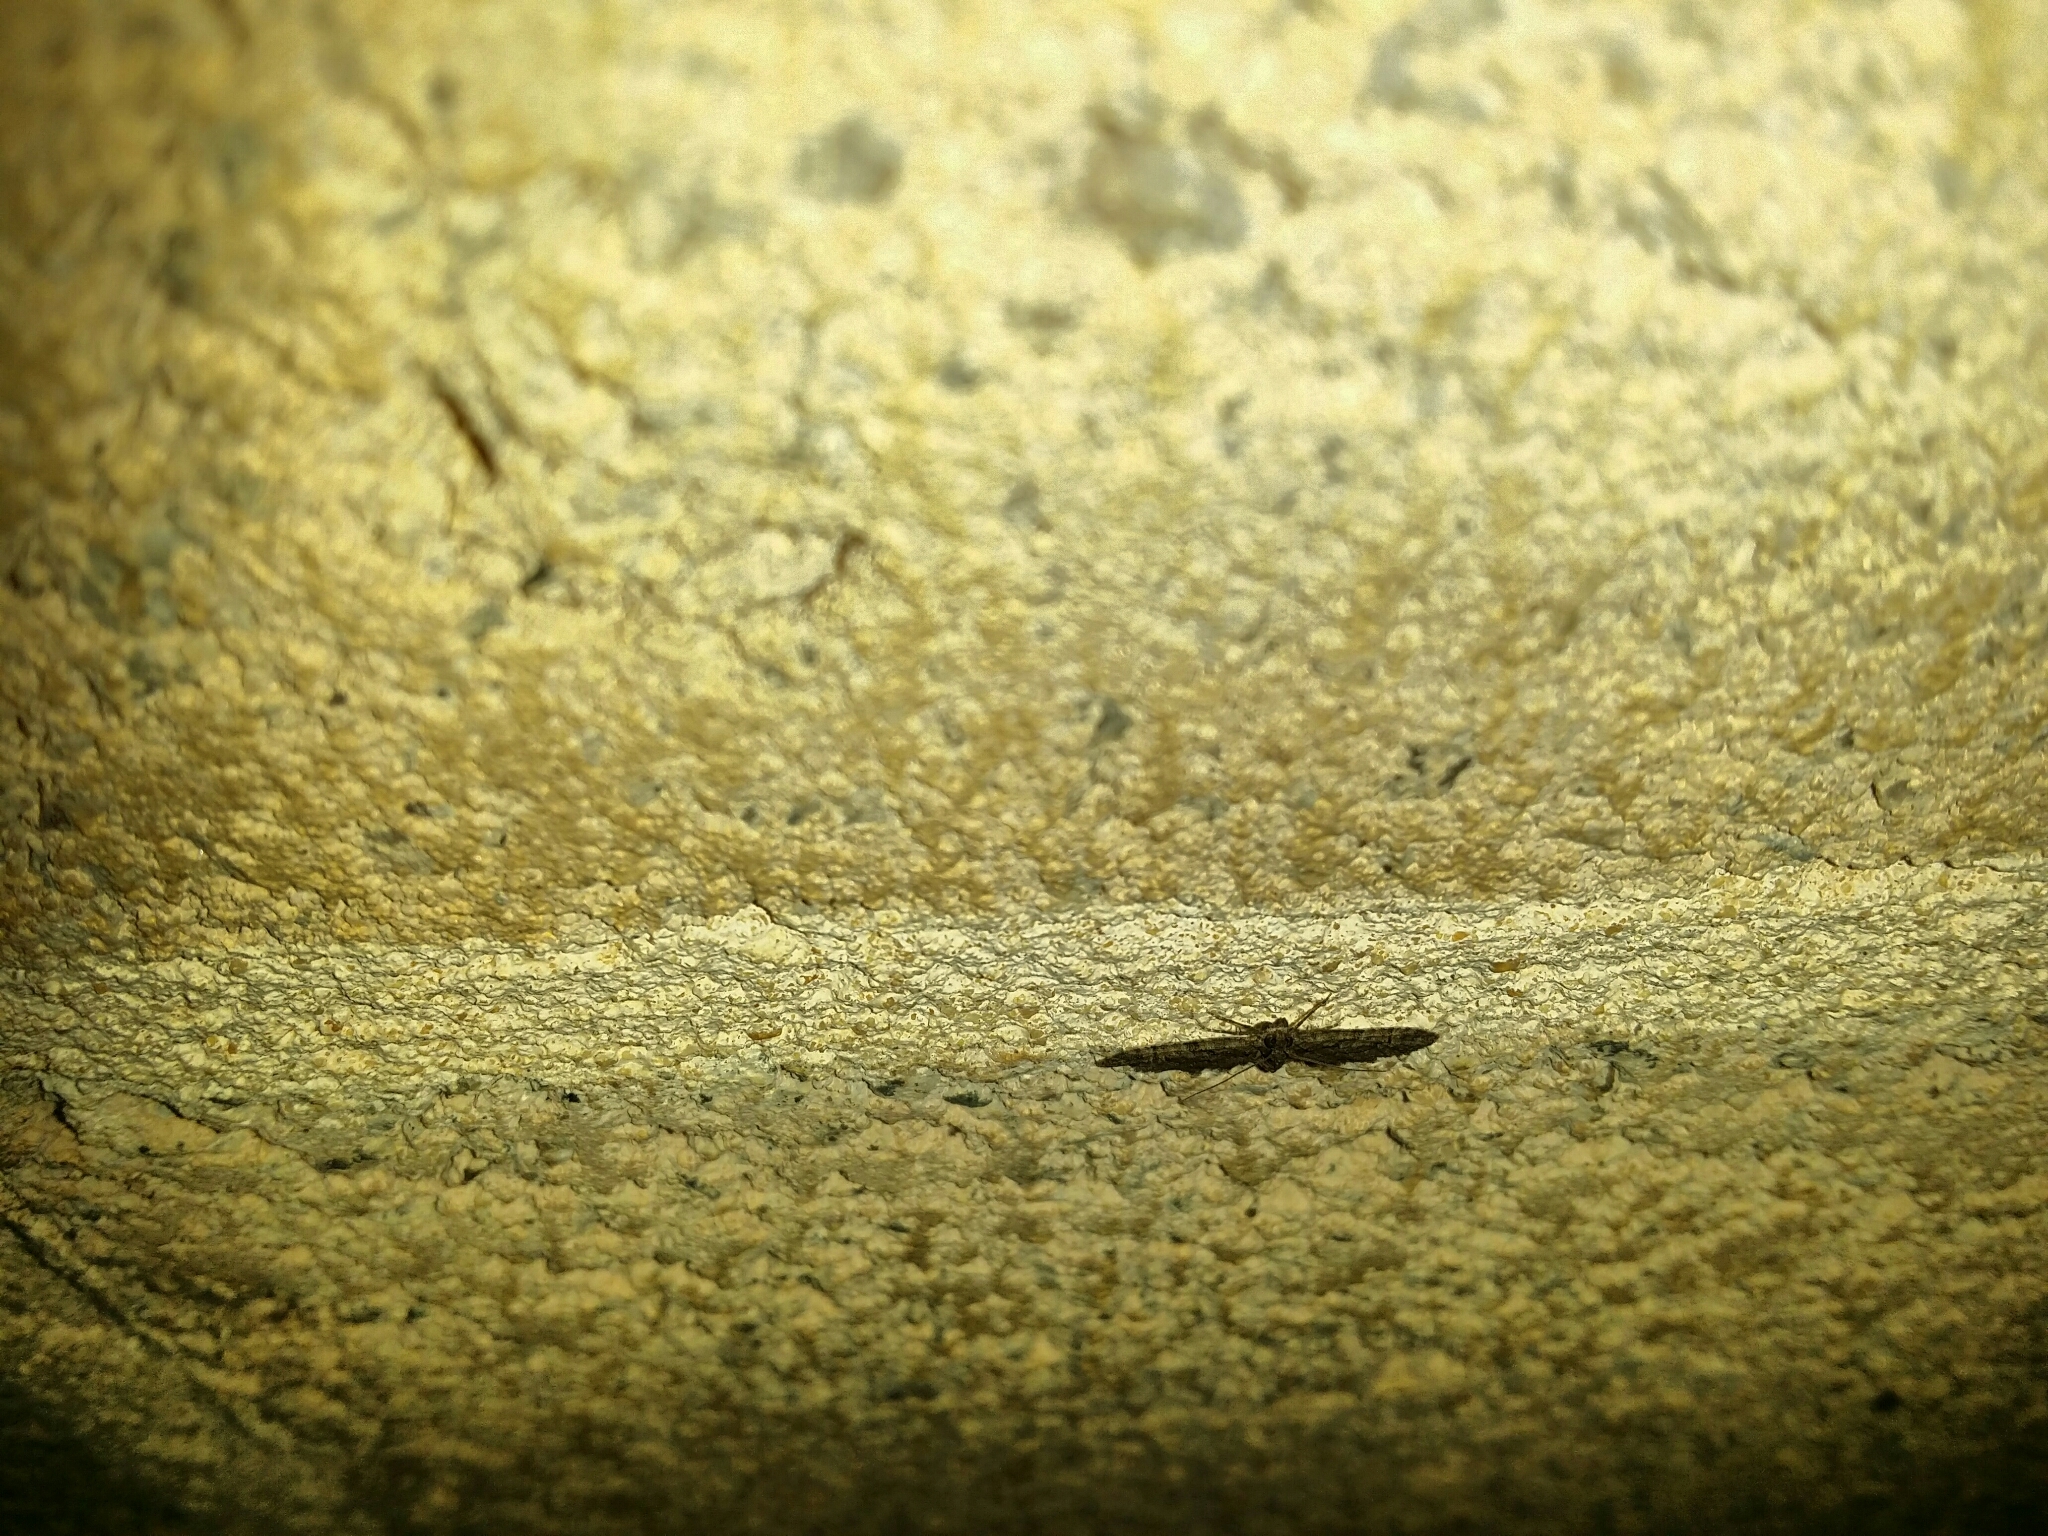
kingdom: Animalia
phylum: Arthropoda
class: Insecta
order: Lepidoptera
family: Geometridae
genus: Phrissogonus
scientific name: Phrissogonus laticostata
